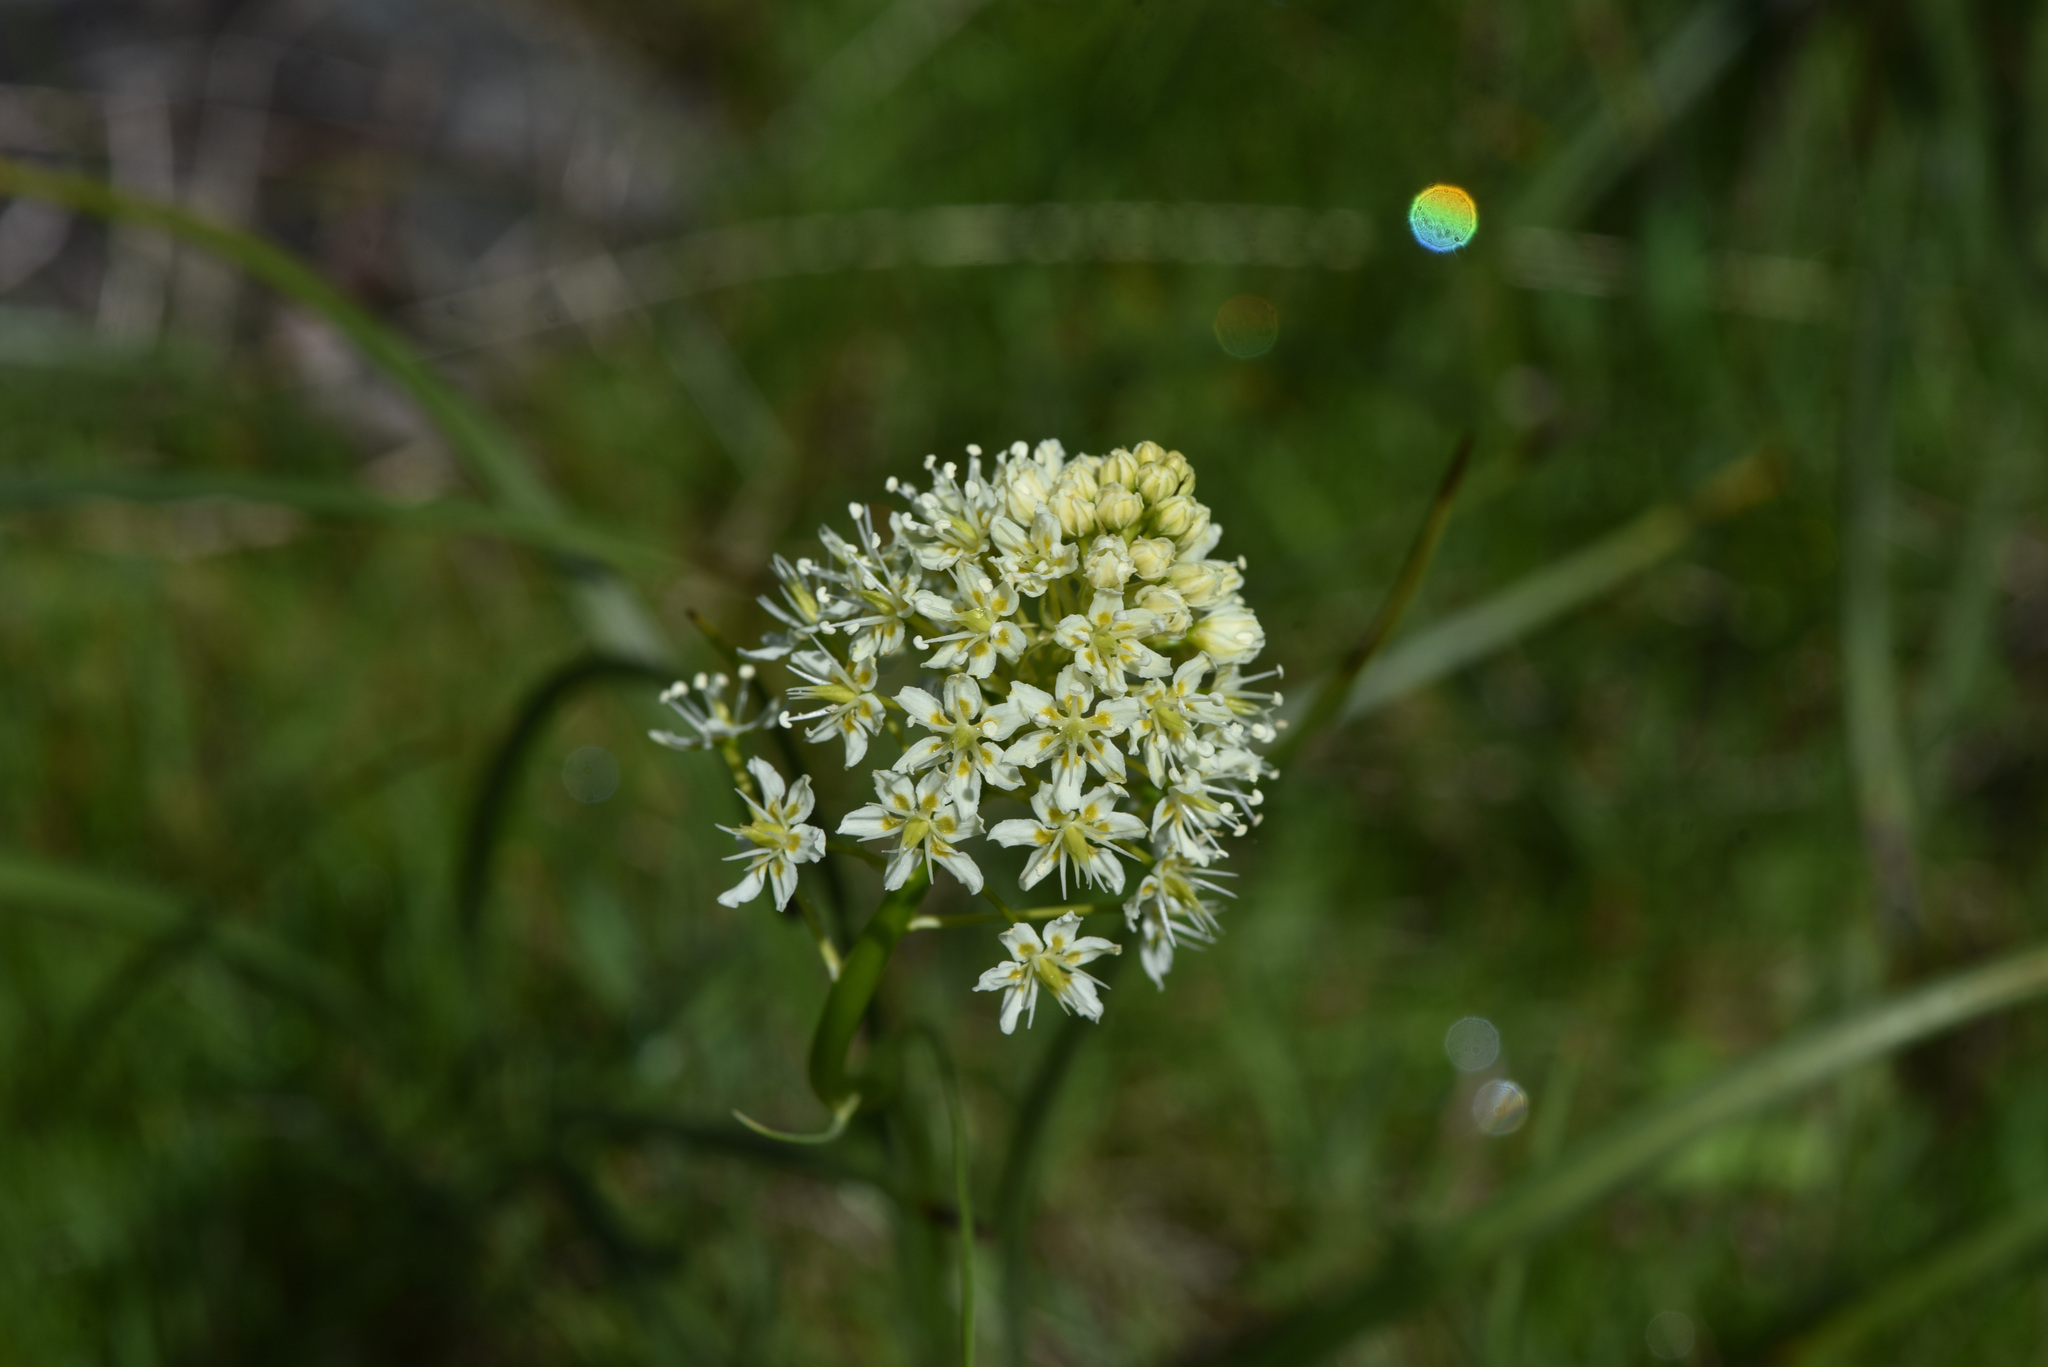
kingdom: Plantae
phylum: Tracheophyta
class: Liliopsida
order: Liliales
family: Melanthiaceae
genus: Toxicoscordion
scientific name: Toxicoscordion venenosum
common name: Meadow death camas
